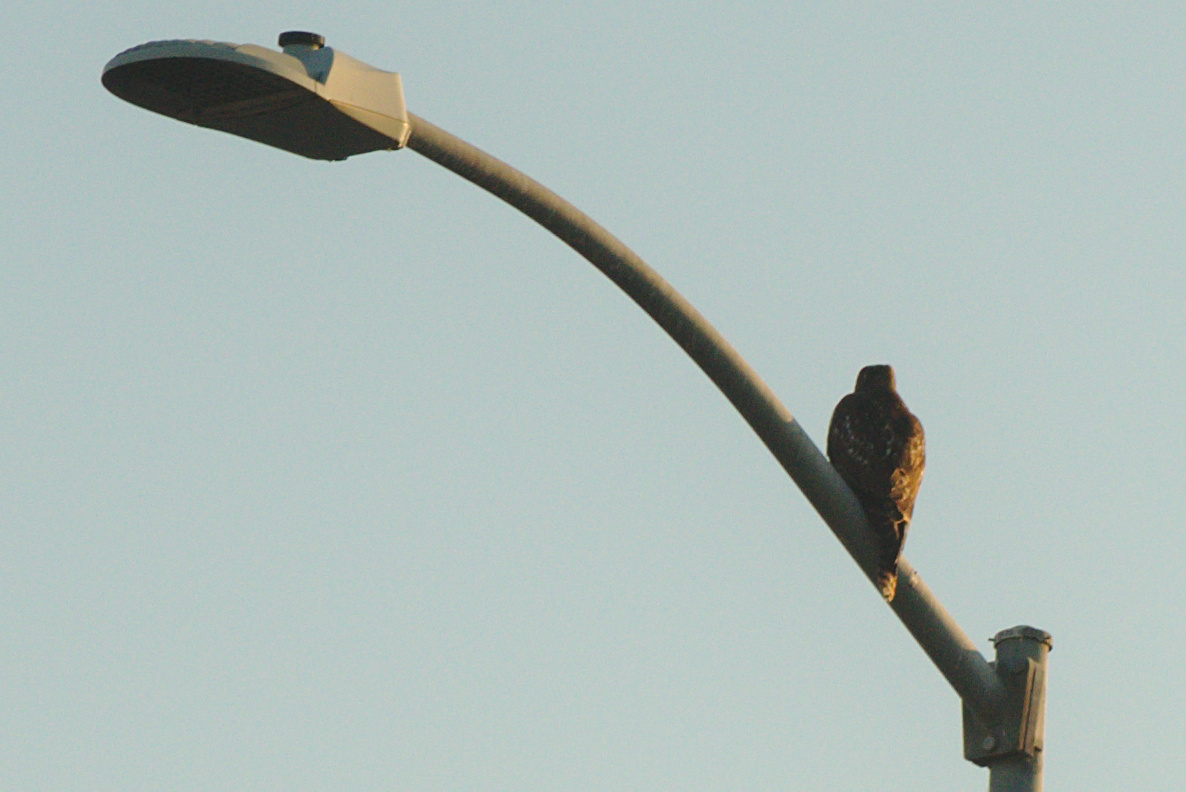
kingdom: Animalia
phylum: Chordata
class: Aves
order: Accipitriformes
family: Accipitridae
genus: Buteo
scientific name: Buteo jamaicensis
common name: Red-tailed hawk
